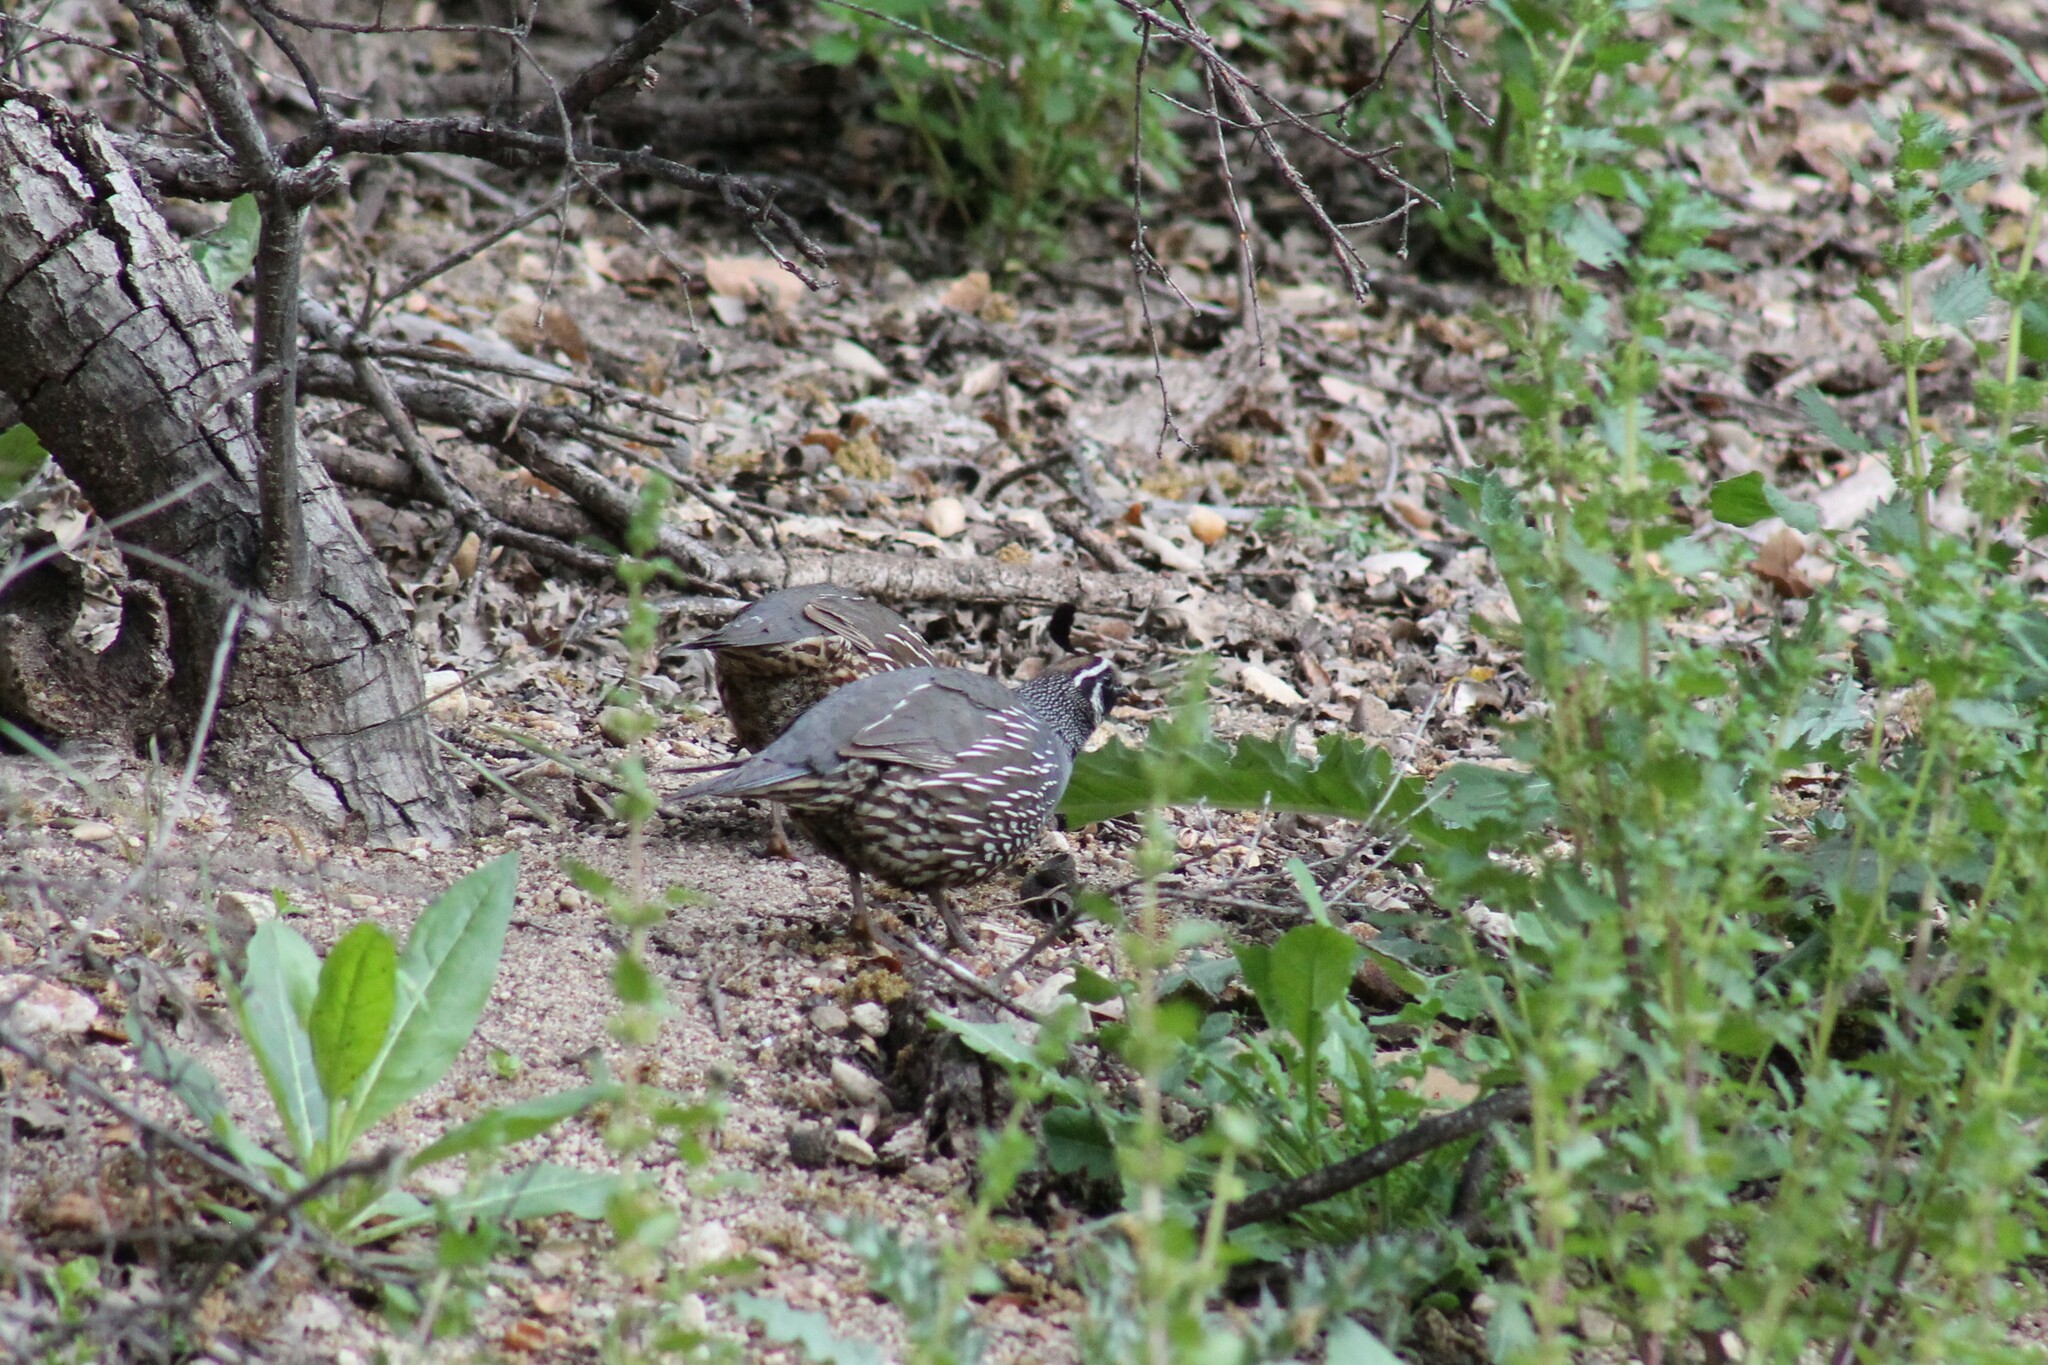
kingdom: Animalia
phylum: Chordata
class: Aves
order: Galliformes
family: Odontophoridae
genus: Callipepla
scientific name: Callipepla californica
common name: California quail
